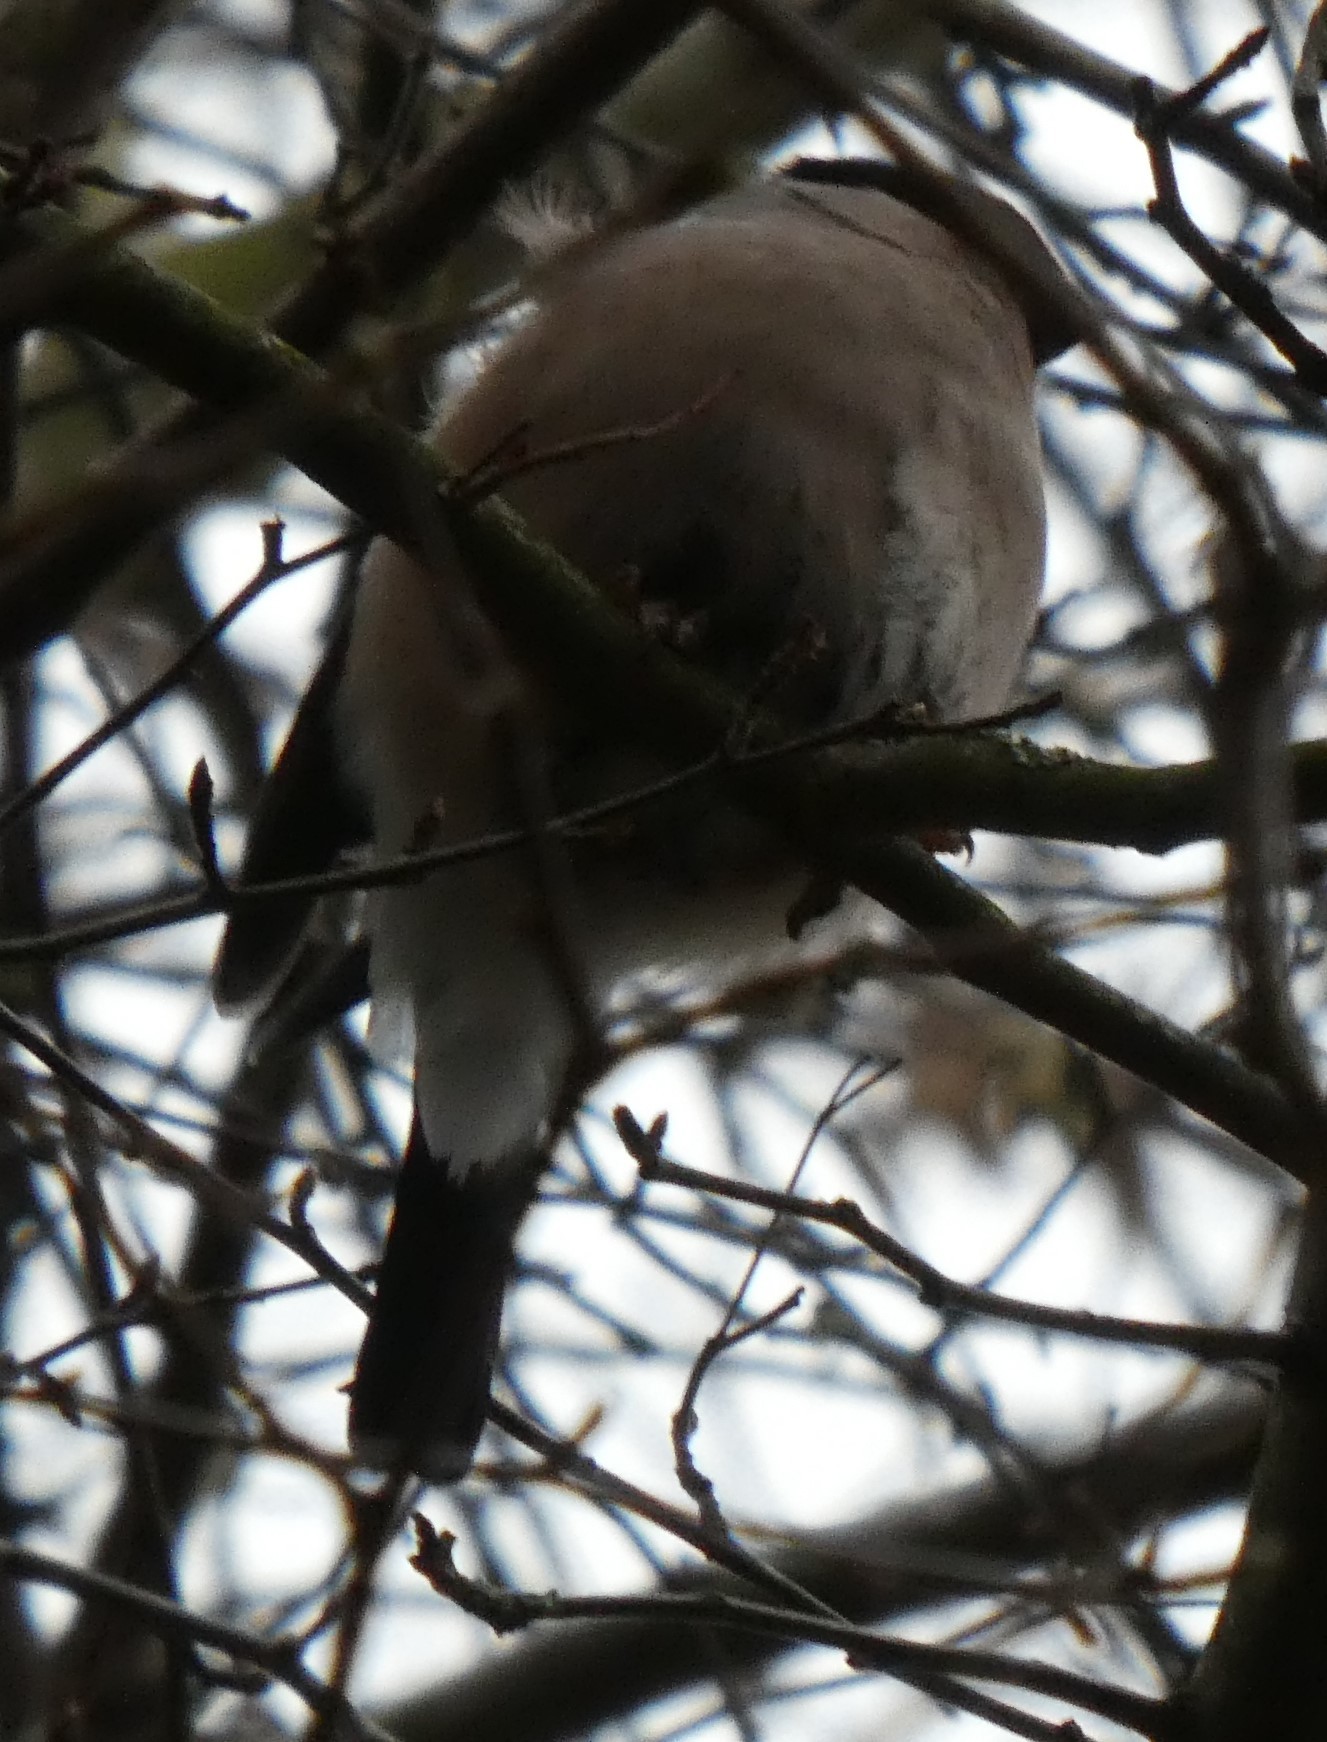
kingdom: Animalia
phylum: Chordata
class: Aves
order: Passeriformes
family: Fringillidae
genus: Pyrrhula
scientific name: Pyrrhula pyrrhula
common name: Eurasian bullfinch
